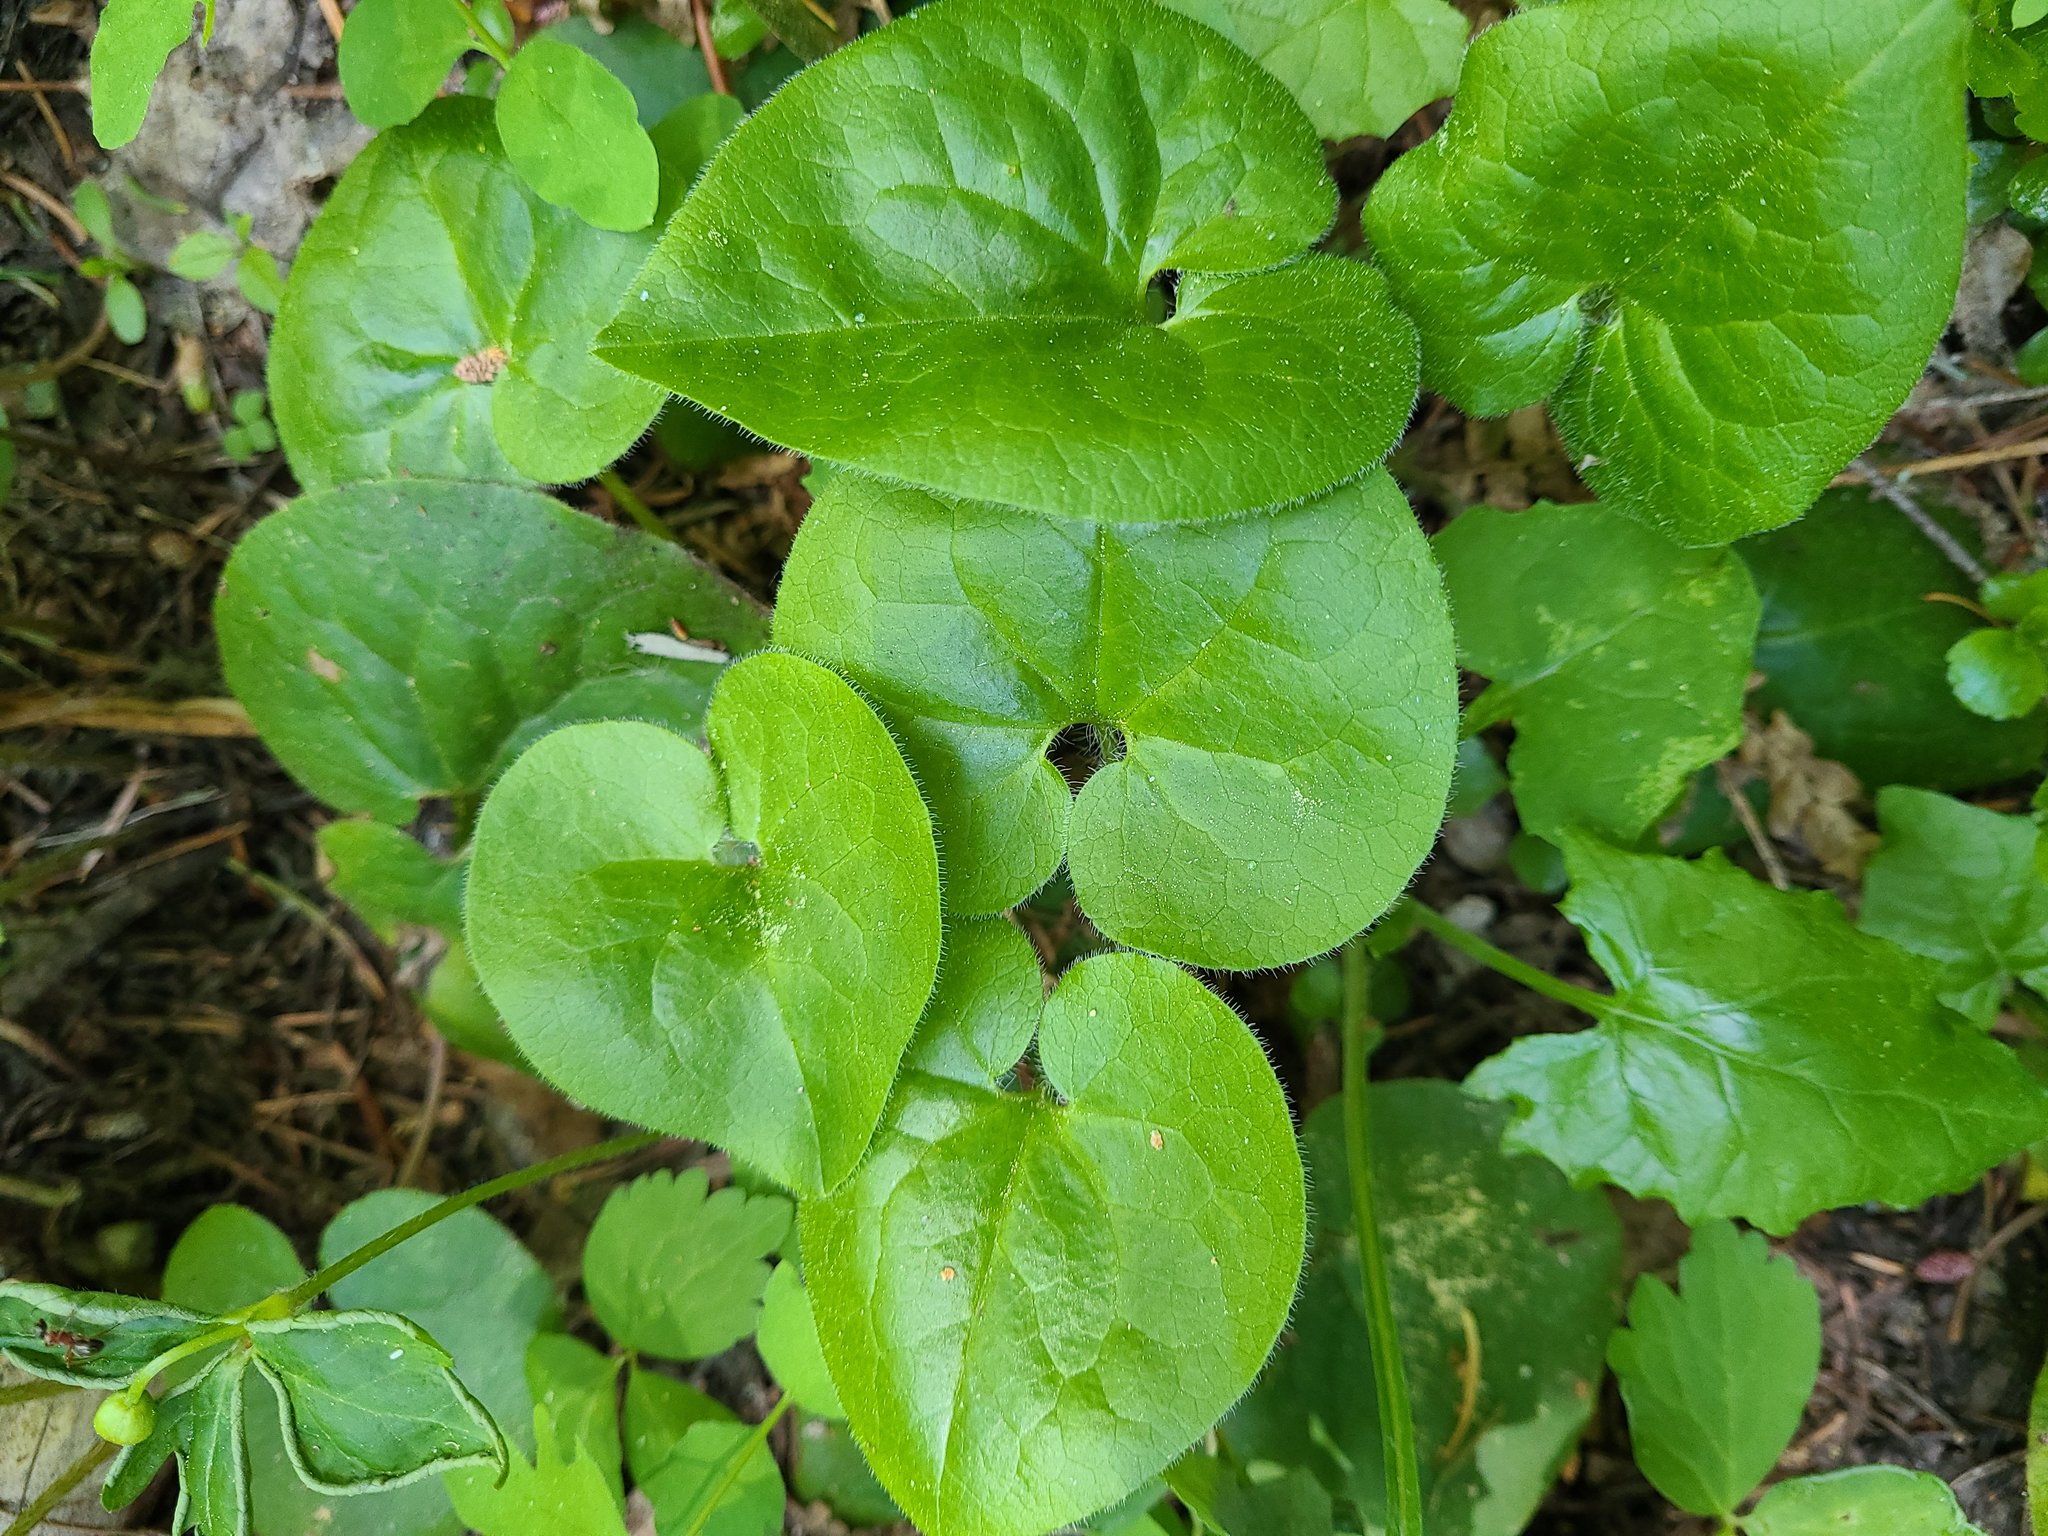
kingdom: Plantae
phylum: Tracheophyta
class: Magnoliopsida
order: Piperales
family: Aristolochiaceae
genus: Asarum
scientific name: Asarum caudatum
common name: Wild ginger
